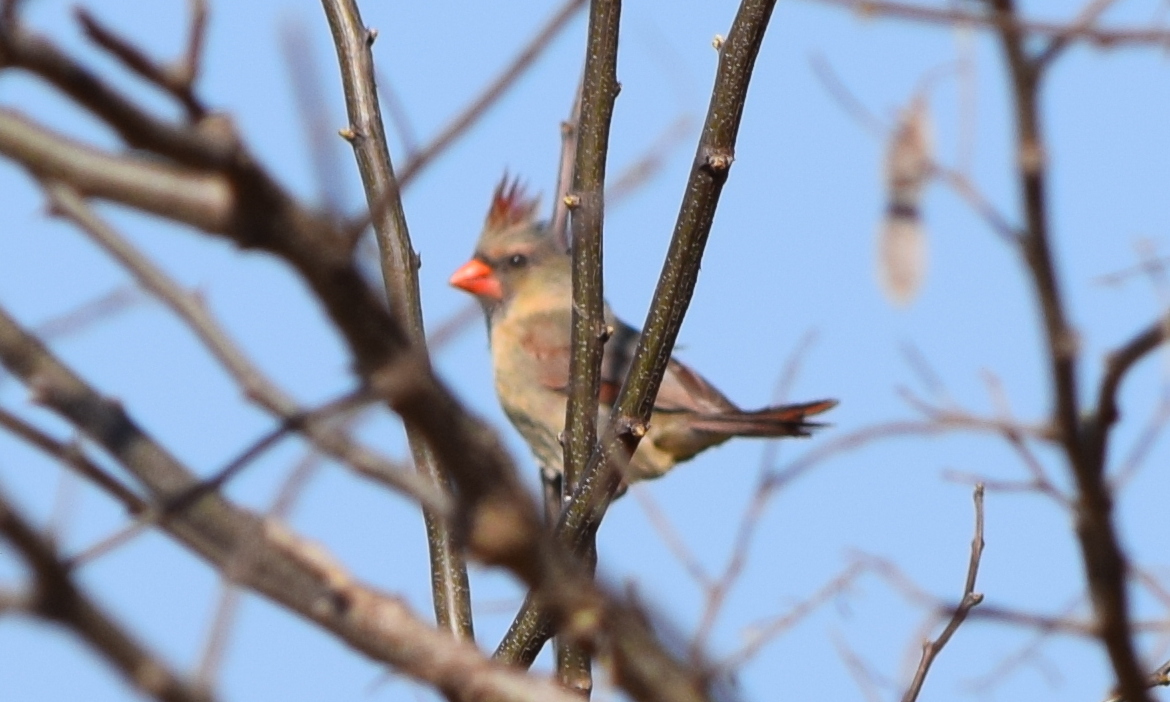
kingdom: Animalia
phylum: Chordata
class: Aves
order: Passeriformes
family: Cardinalidae
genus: Cardinalis
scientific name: Cardinalis cardinalis
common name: Northern cardinal
